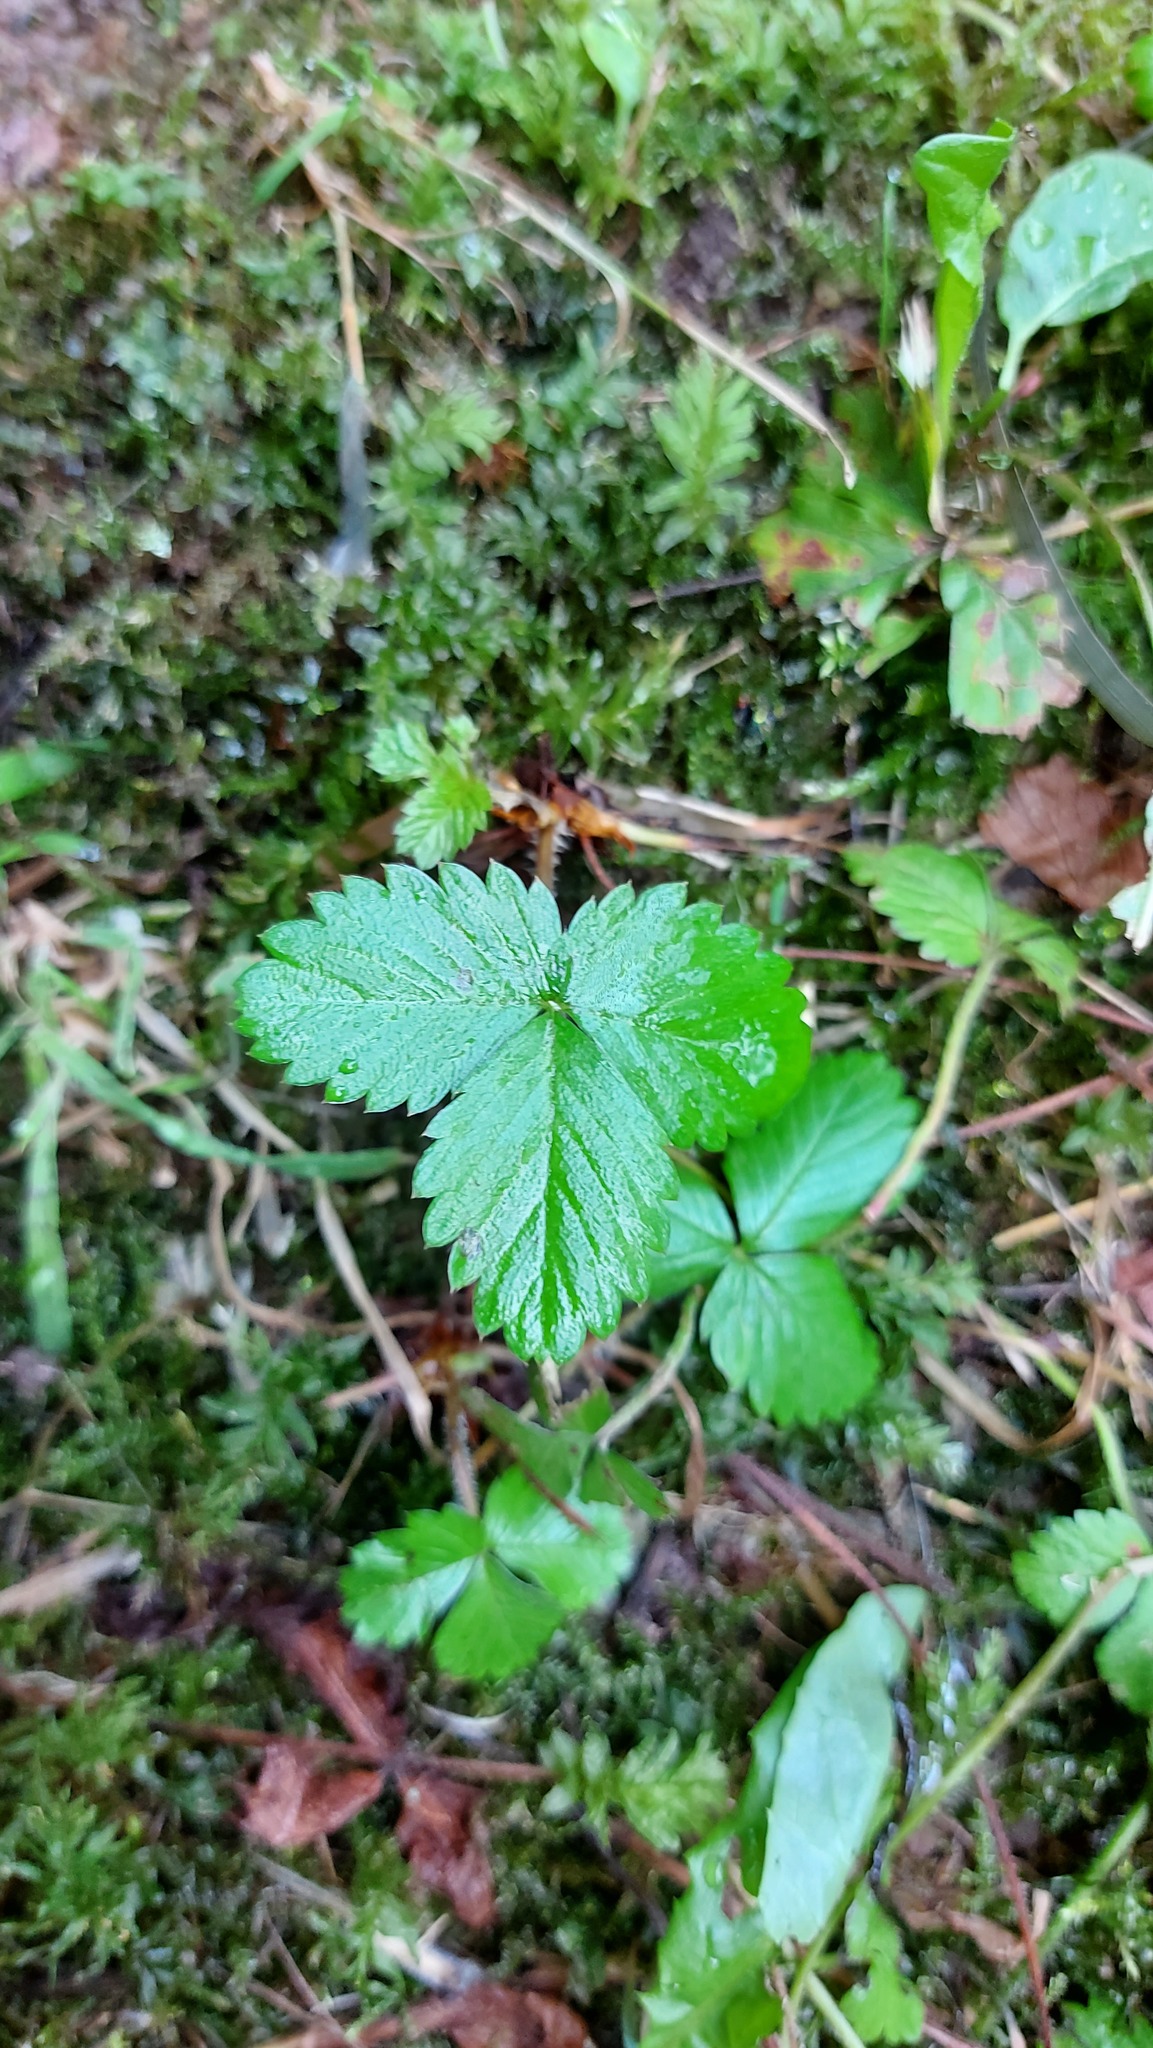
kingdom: Plantae
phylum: Tracheophyta
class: Magnoliopsida
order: Rosales
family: Rosaceae
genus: Fragaria
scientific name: Fragaria vesca
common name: Wild strawberry
